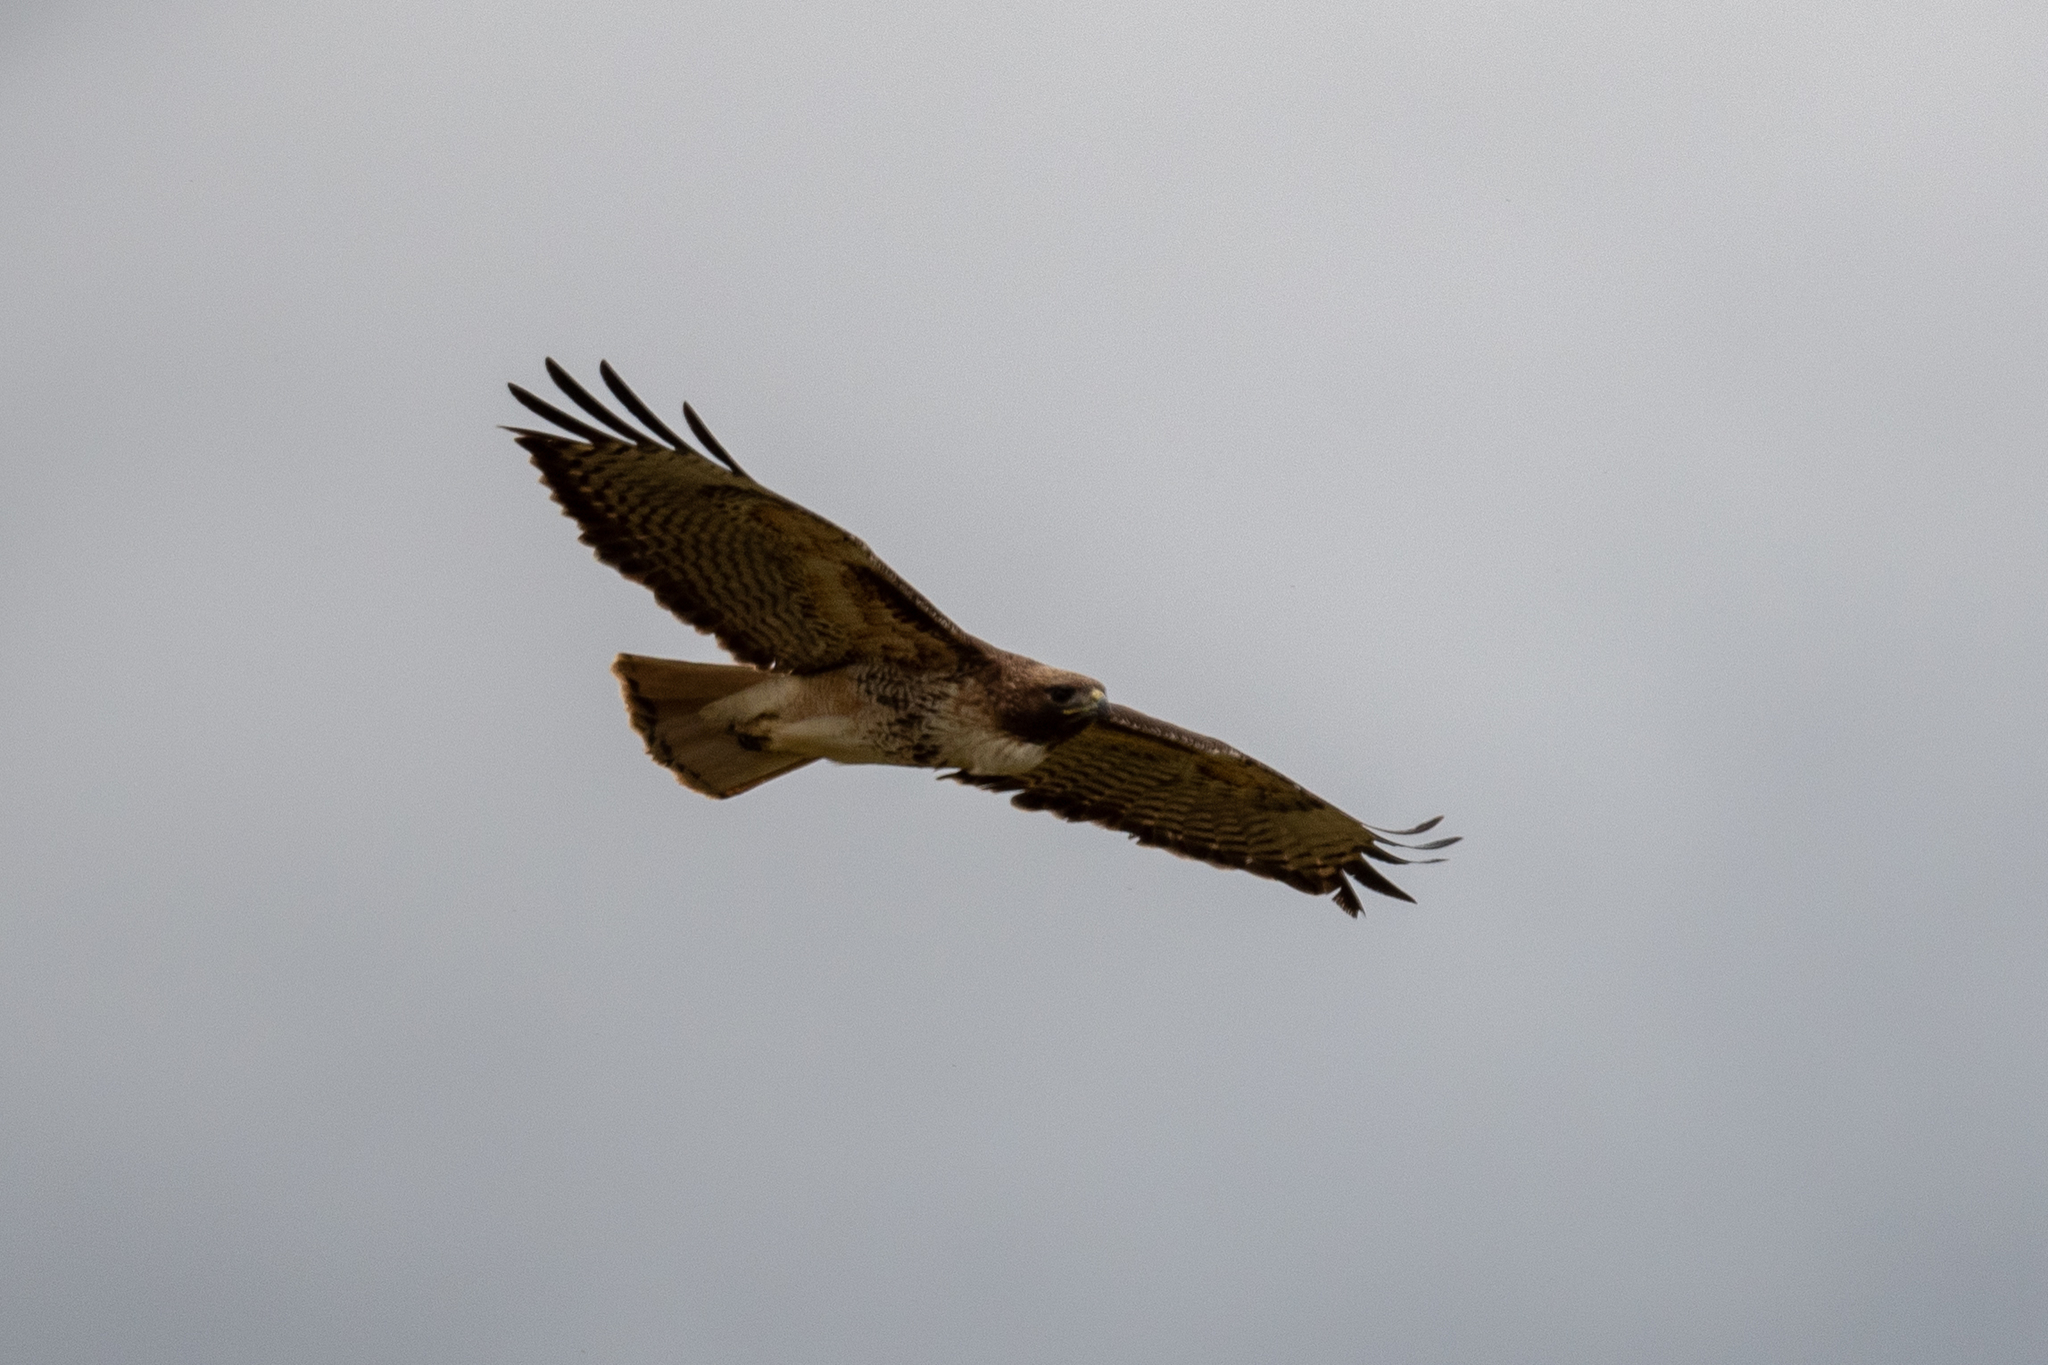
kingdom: Animalia
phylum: Chordata
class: Aves
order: Passeriformes
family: Icteridae
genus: Agelaius
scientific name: Agelaius phoeniceus
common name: Red-winged blackbird
